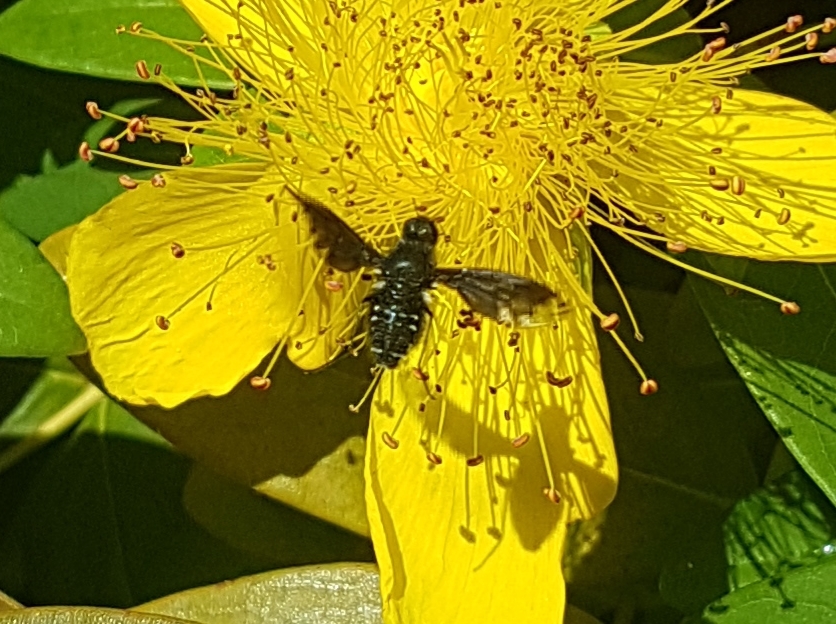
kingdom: Animalia
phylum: Arthropoda
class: Insecta
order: Diptera
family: Bombyliidae
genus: Anthrax
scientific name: Anthrax anthrax
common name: Anthracite bee-fly
